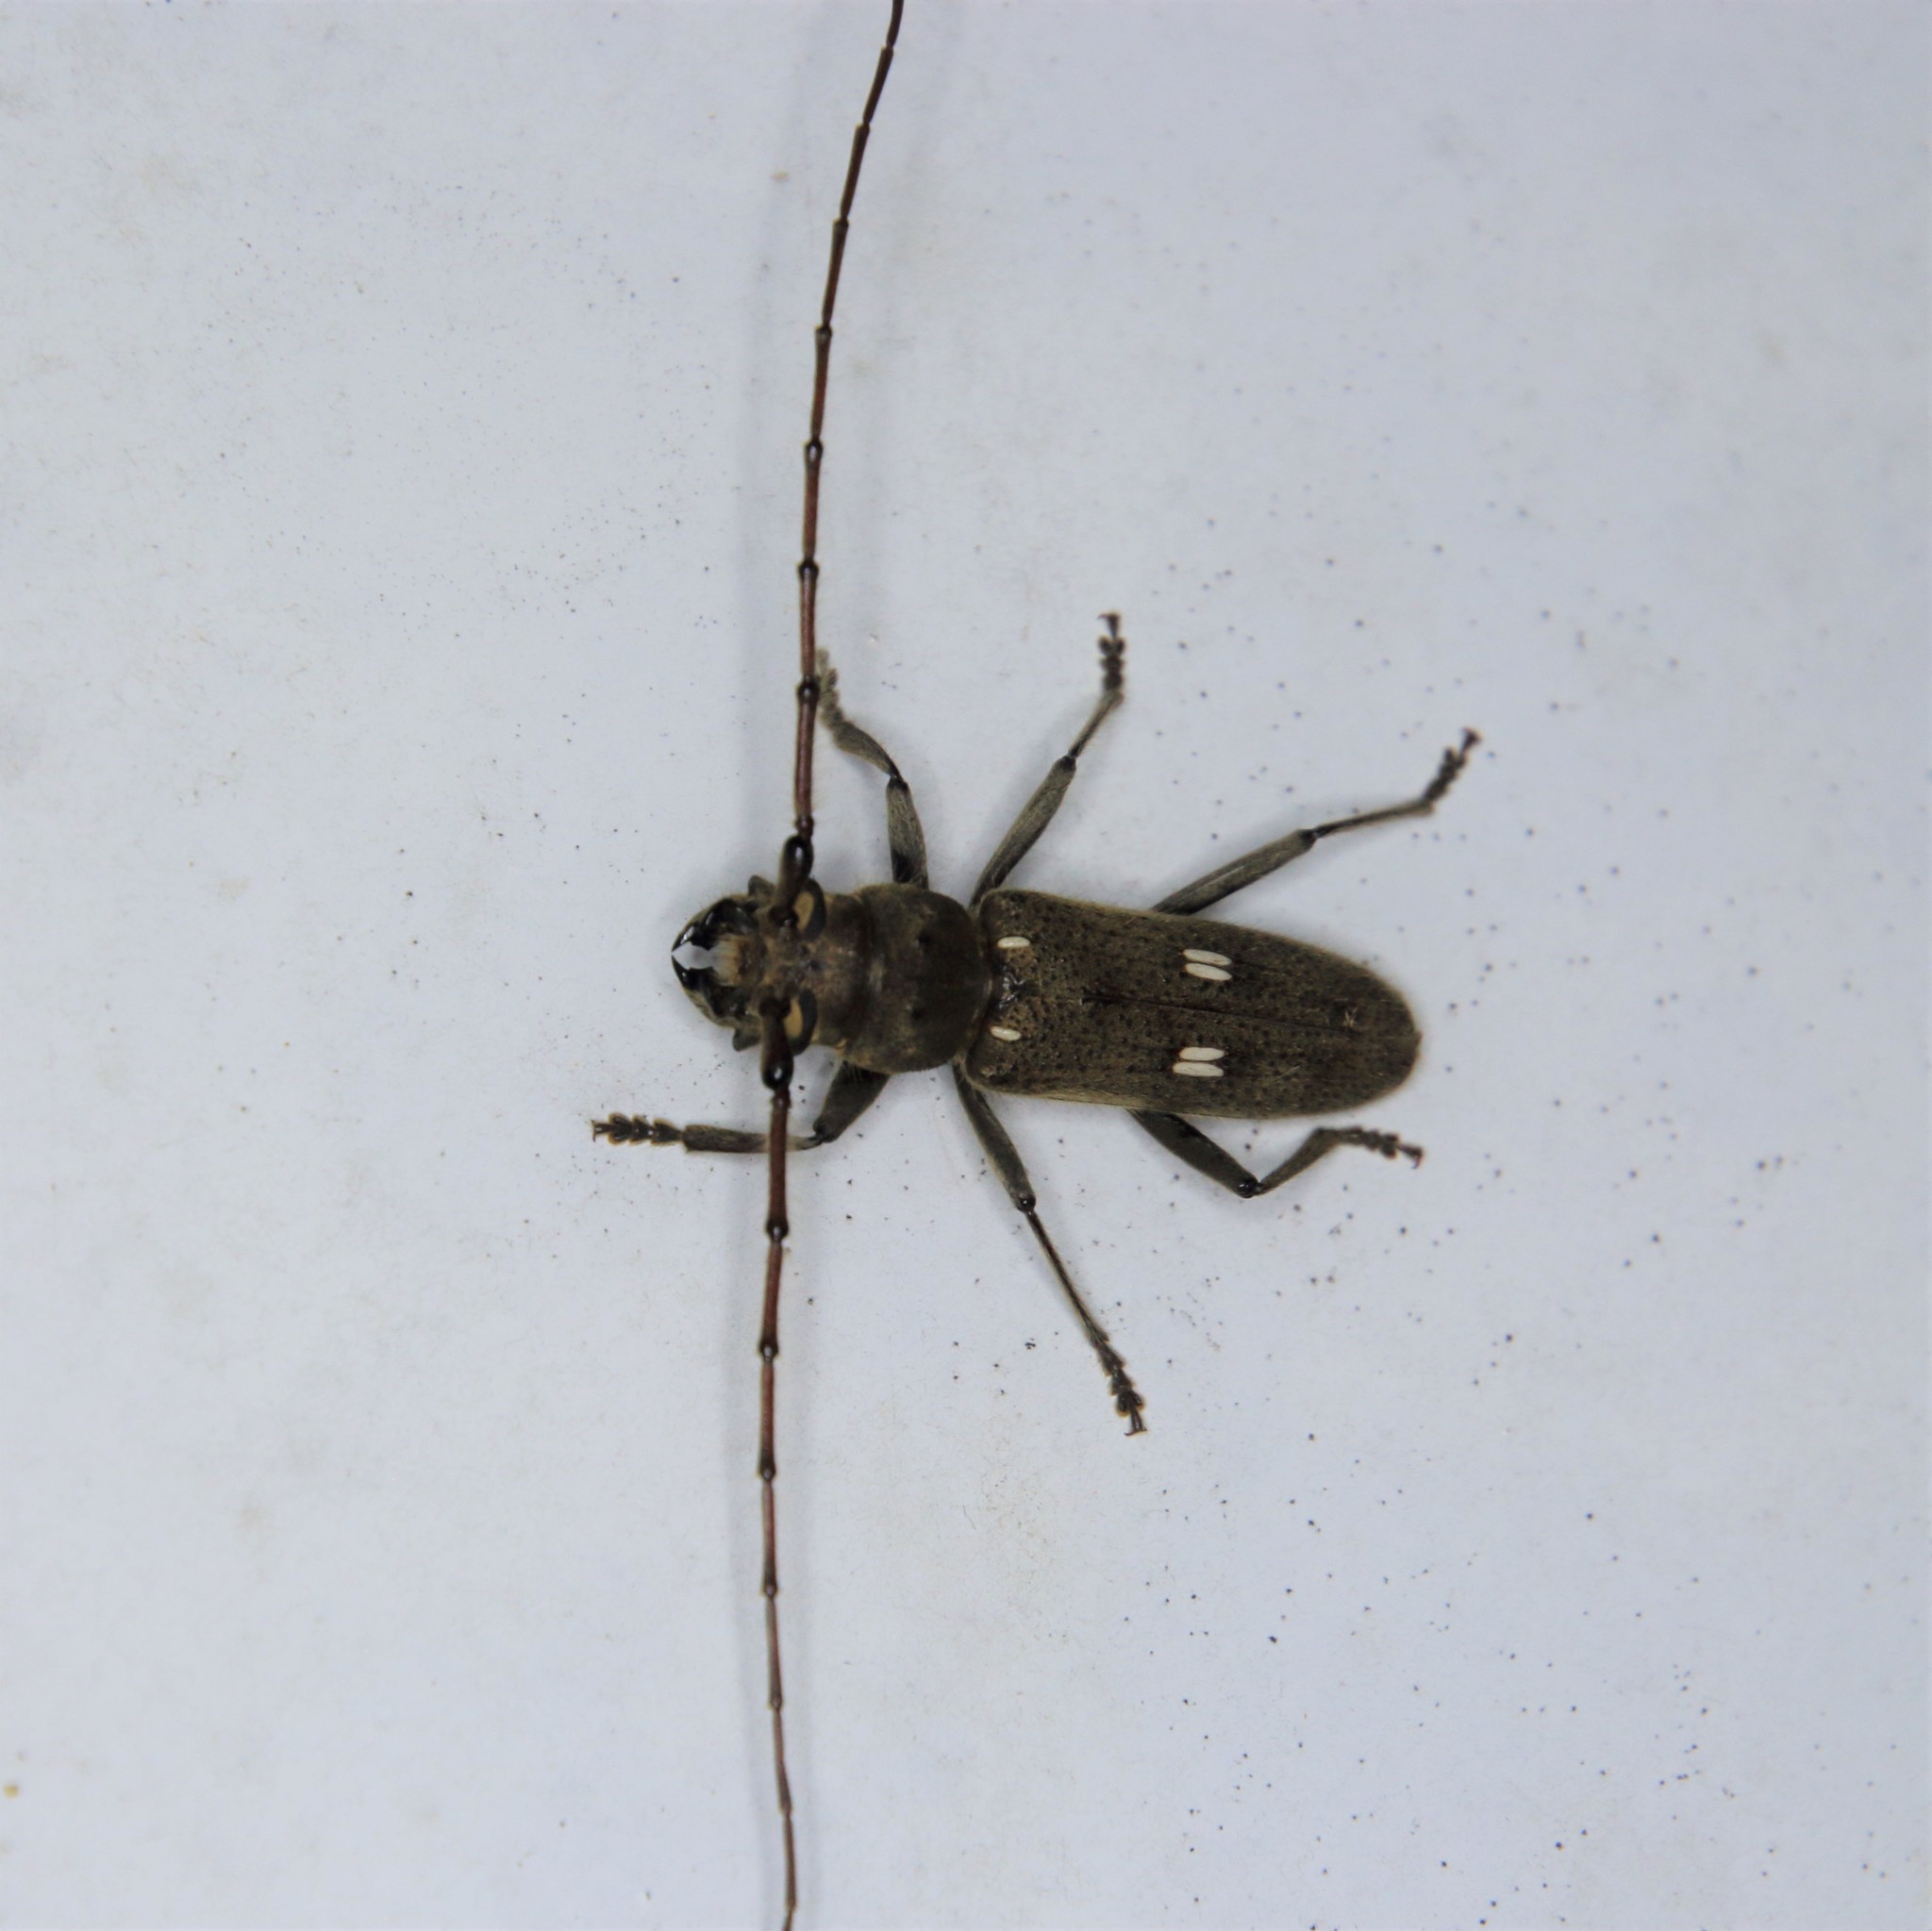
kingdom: Animalia
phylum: Arthropoda
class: Insecta
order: Coleoptera
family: Cerambycidae
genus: Gnatholea
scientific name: Gnatholea eburifera
